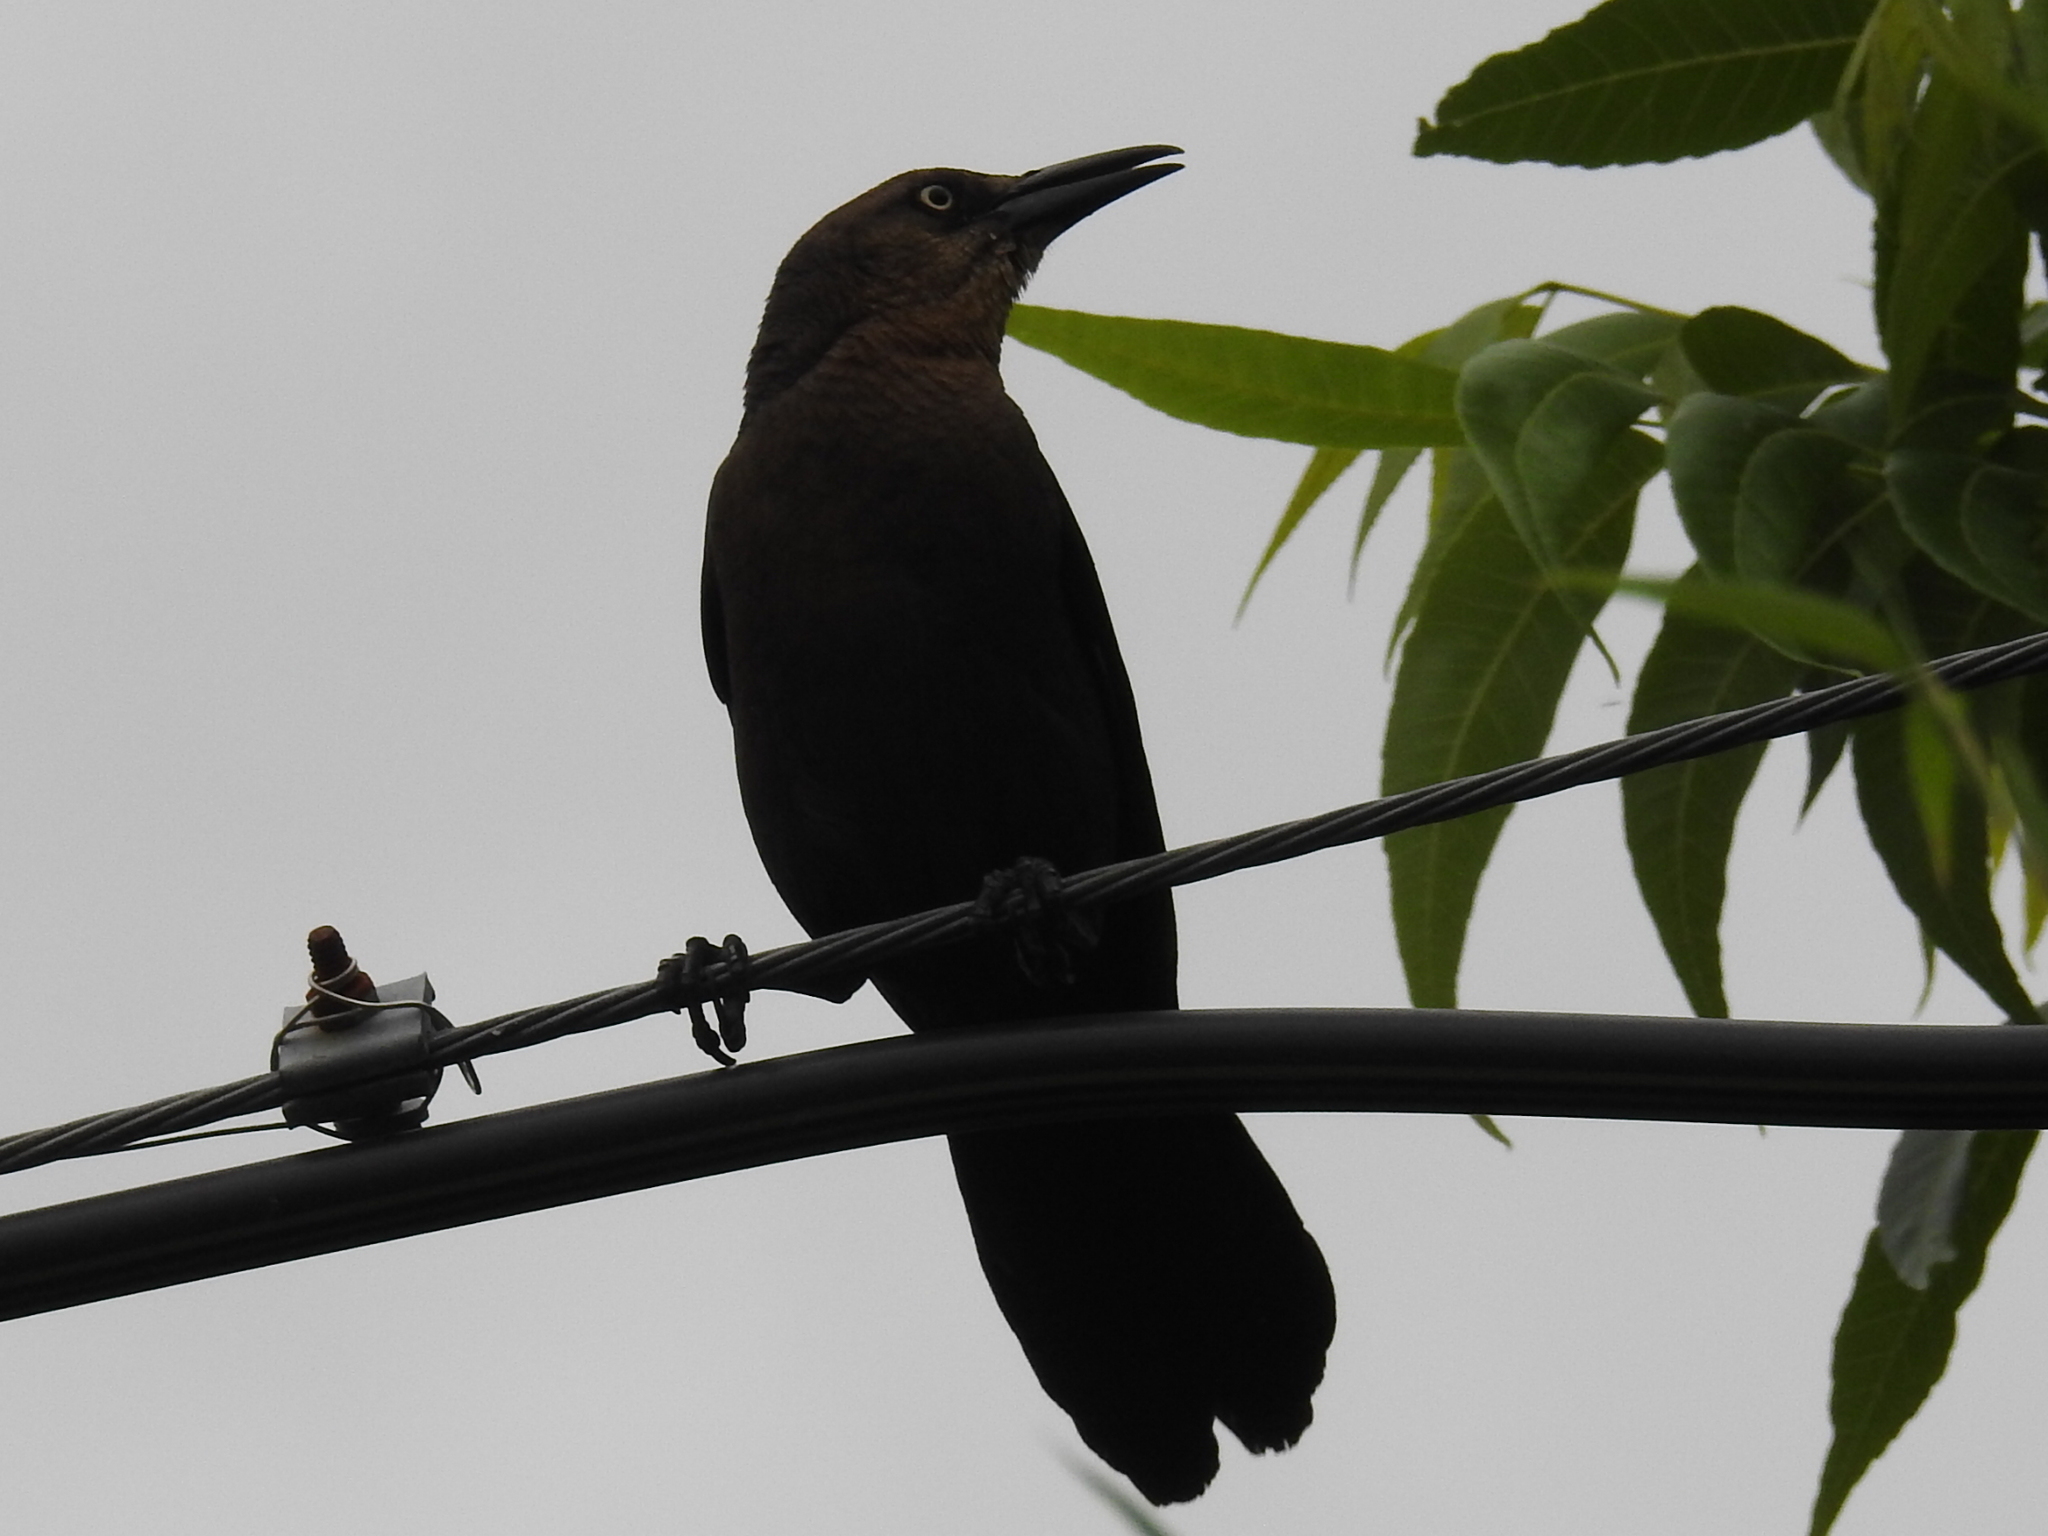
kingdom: Animalia
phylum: Chordata
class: Aves
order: Passeriformes
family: Icteridae
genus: Quiscalus
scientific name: Quiscalus mexicanus
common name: Great-tailed grackle
